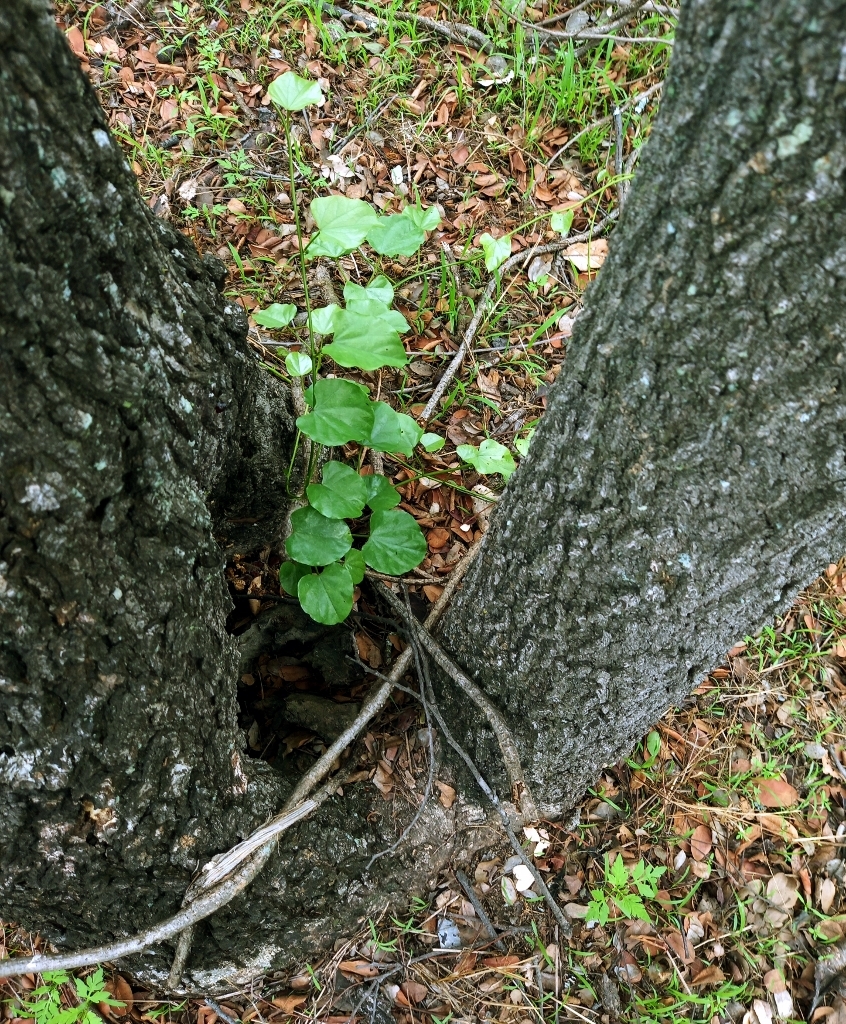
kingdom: Plantae
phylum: Tracheophyta
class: Magnoliopsida
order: Ranunculales
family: Menispermaceae
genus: Tinospora
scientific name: Tinospora caffra
